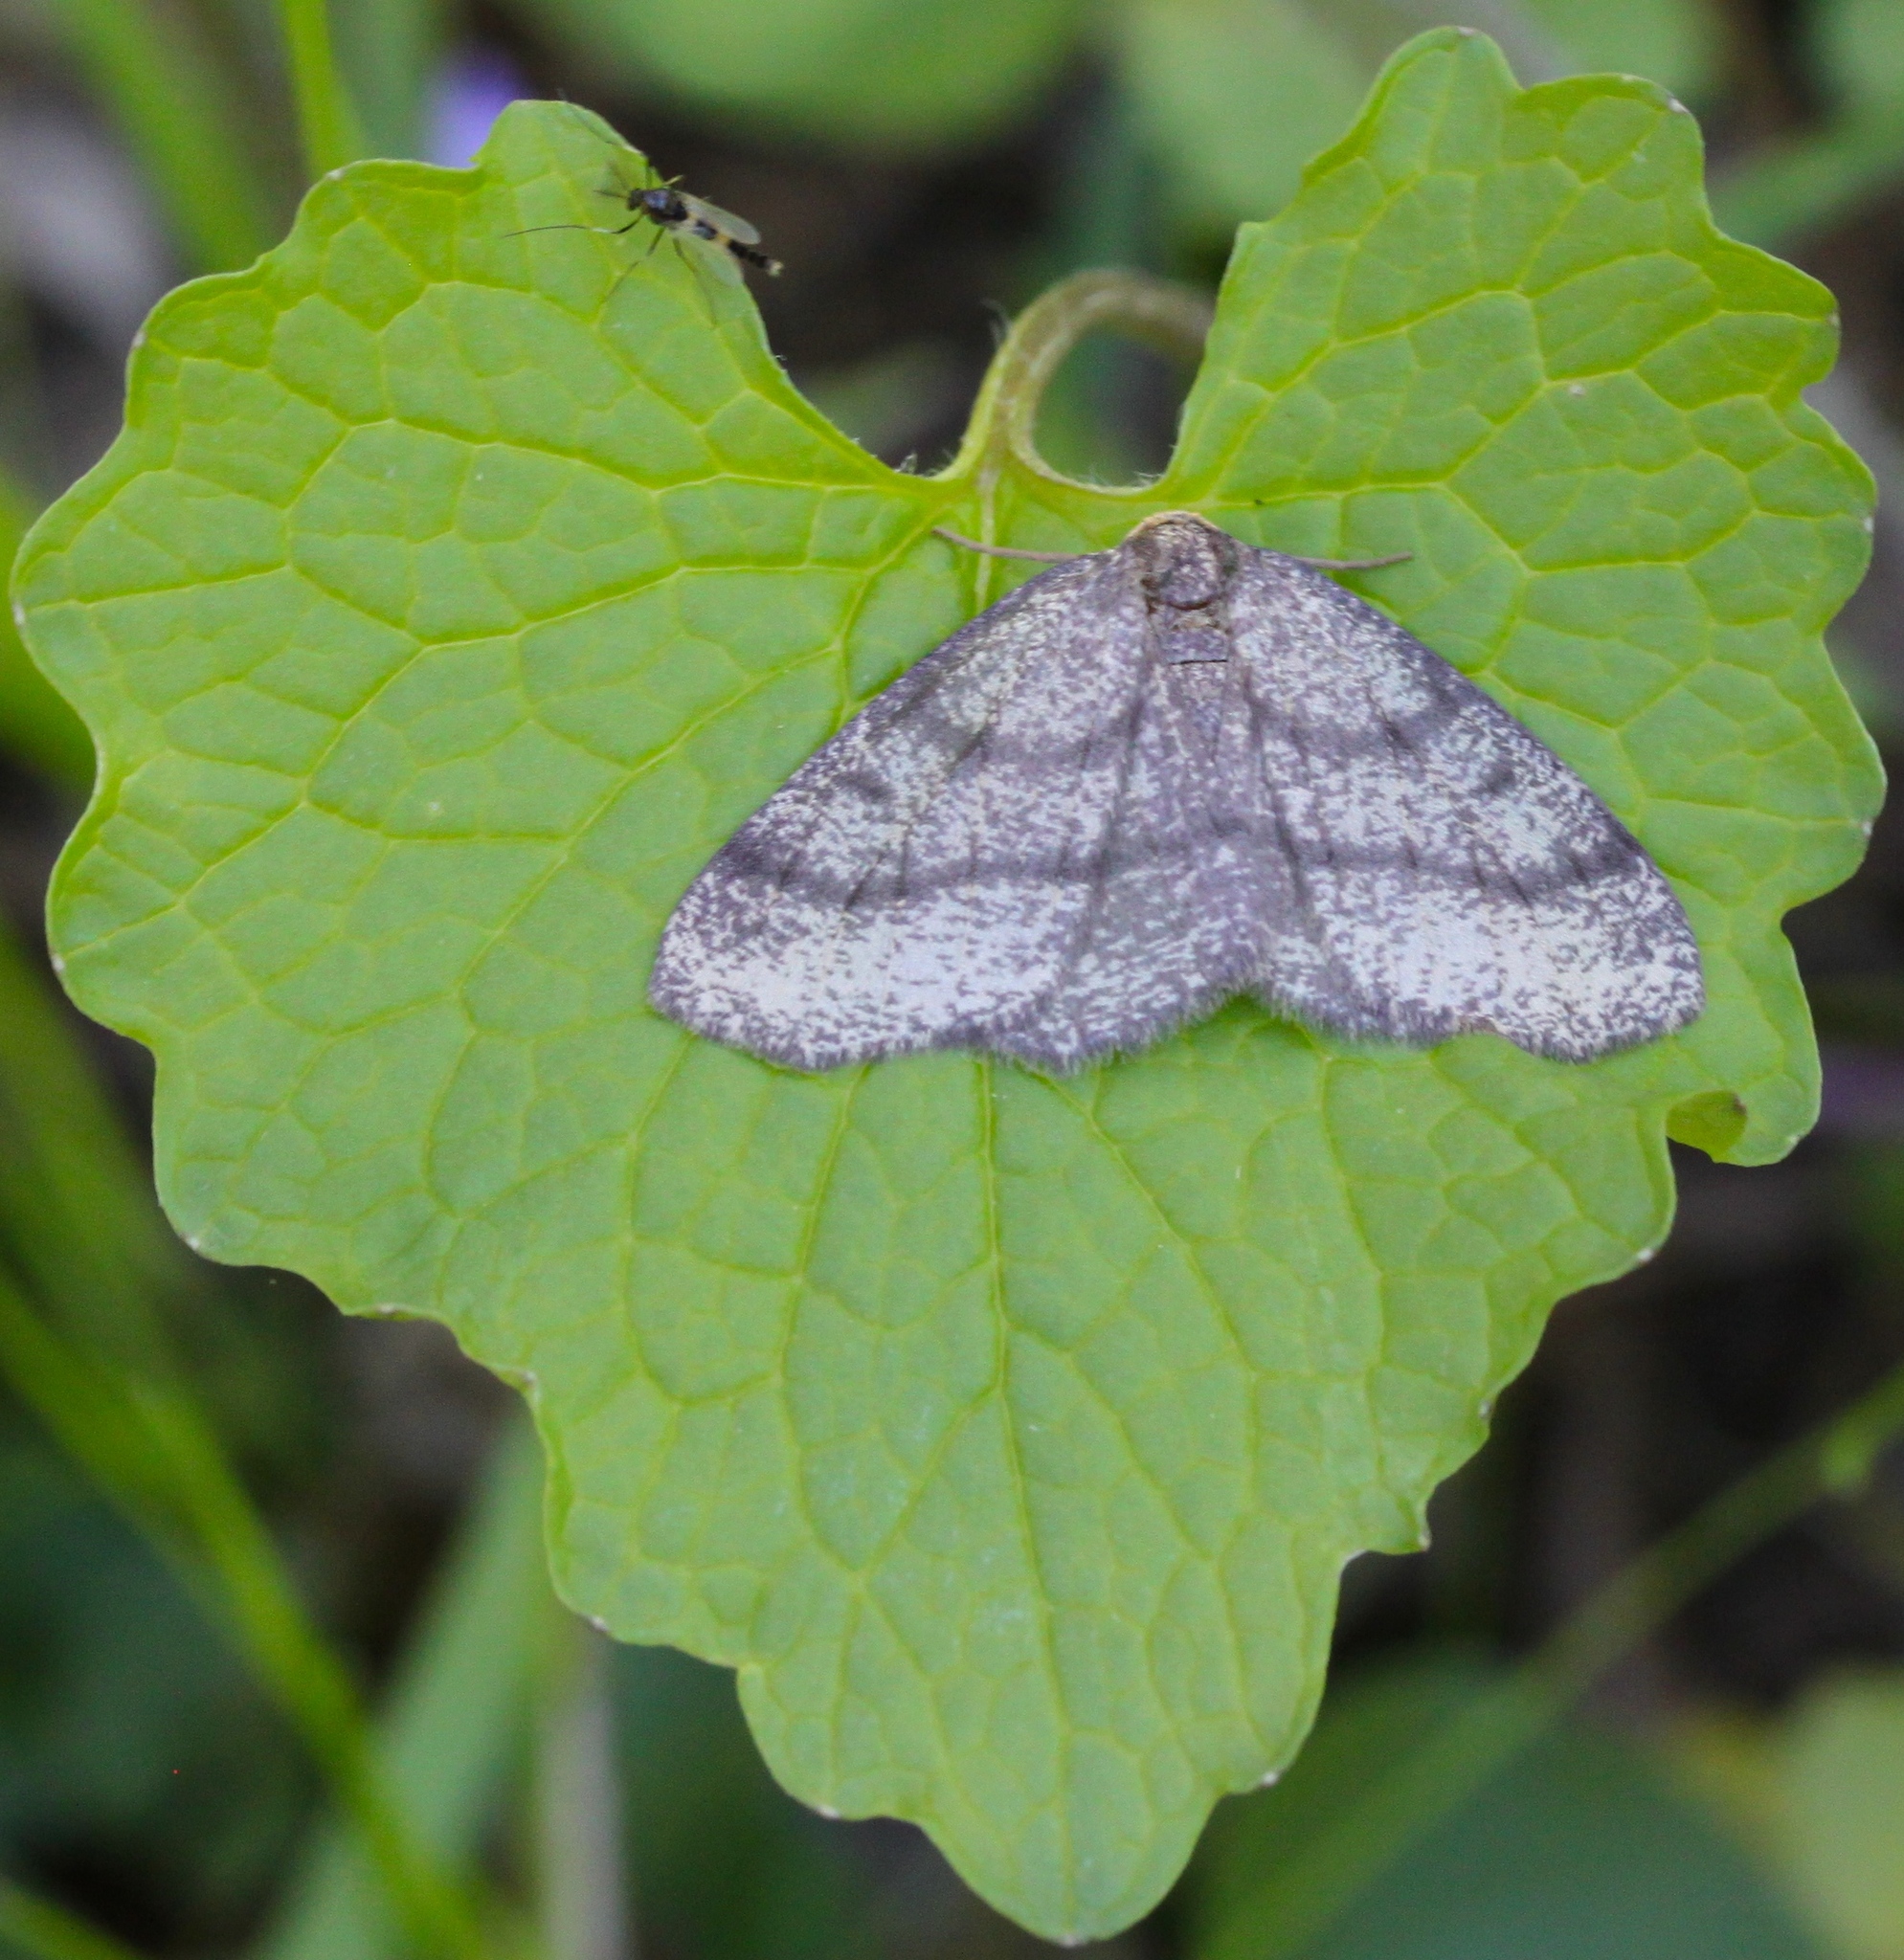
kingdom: Animalia
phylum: Arthropoda
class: Insecta
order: Lepidoptera
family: Geometridae
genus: Lambdina
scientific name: Lambdina fervidaria
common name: Curve-lined looper moth
